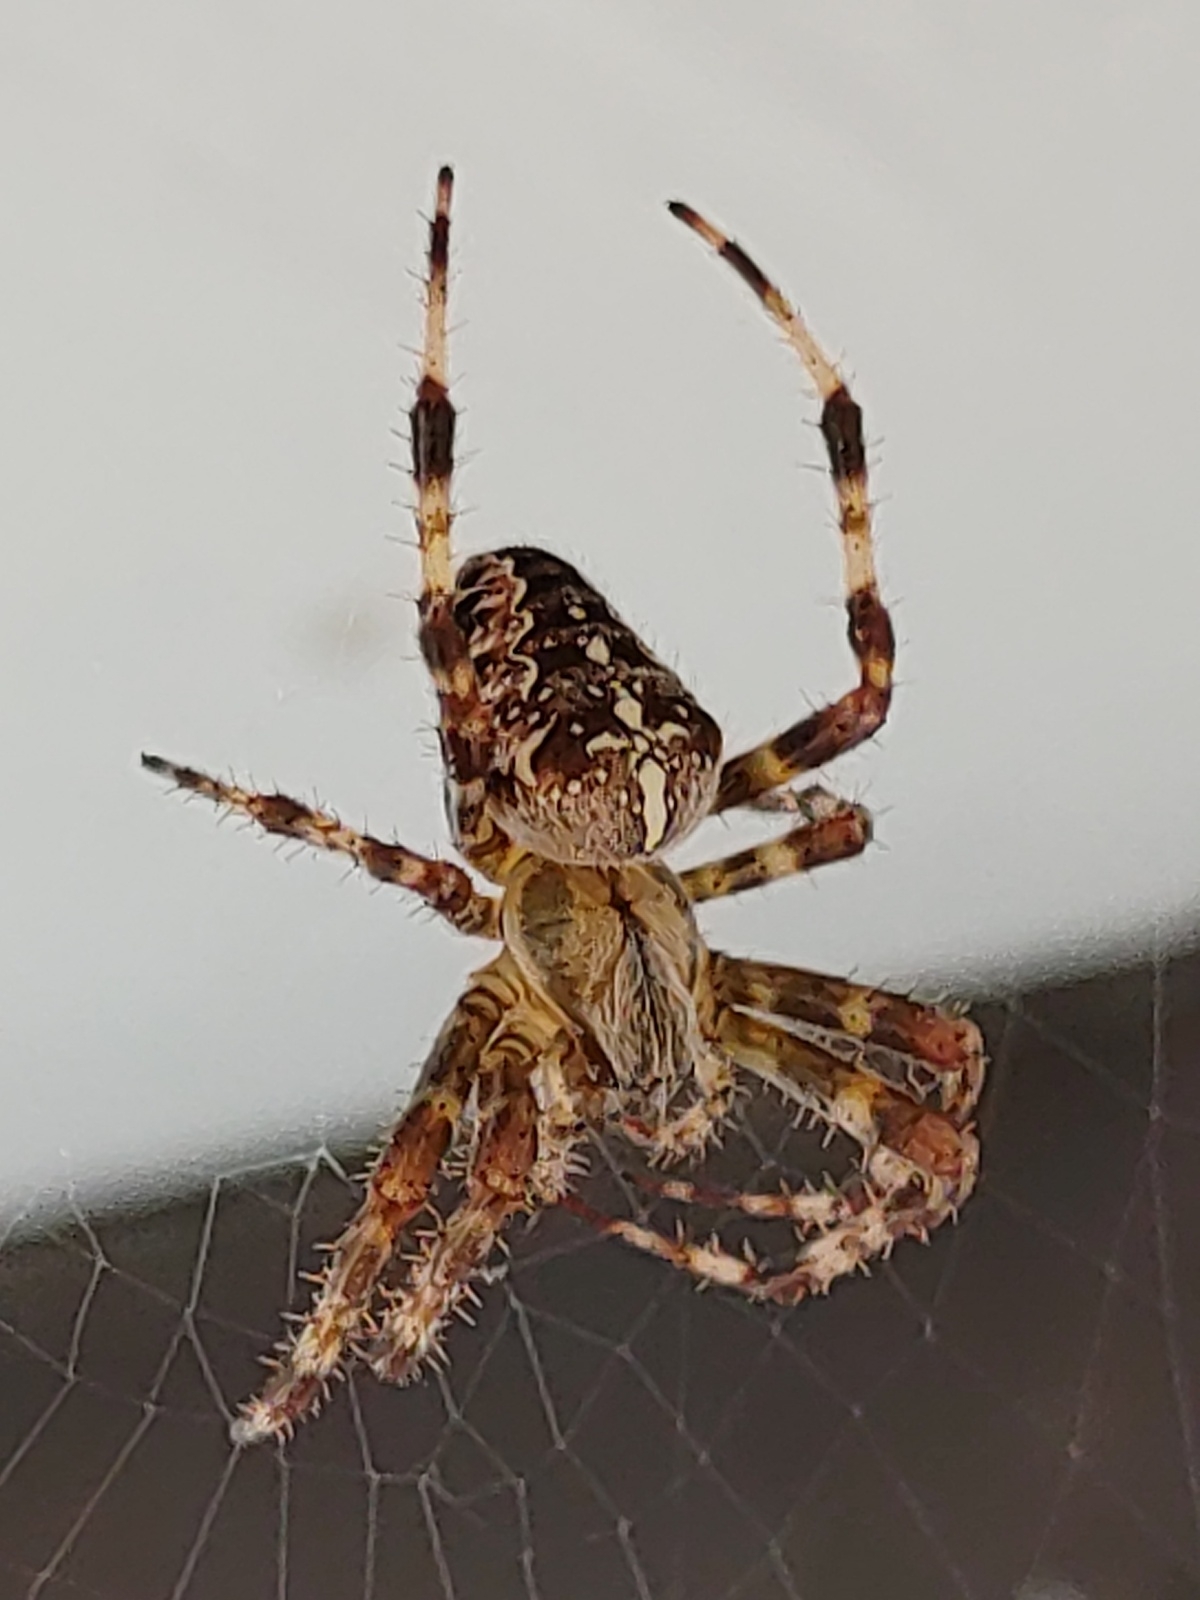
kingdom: Animalia
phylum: Arthropoda
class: Arachnida
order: Araneae
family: Araneidae
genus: Araneus
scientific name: Araneus diadematus
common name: Cross orbweaver
